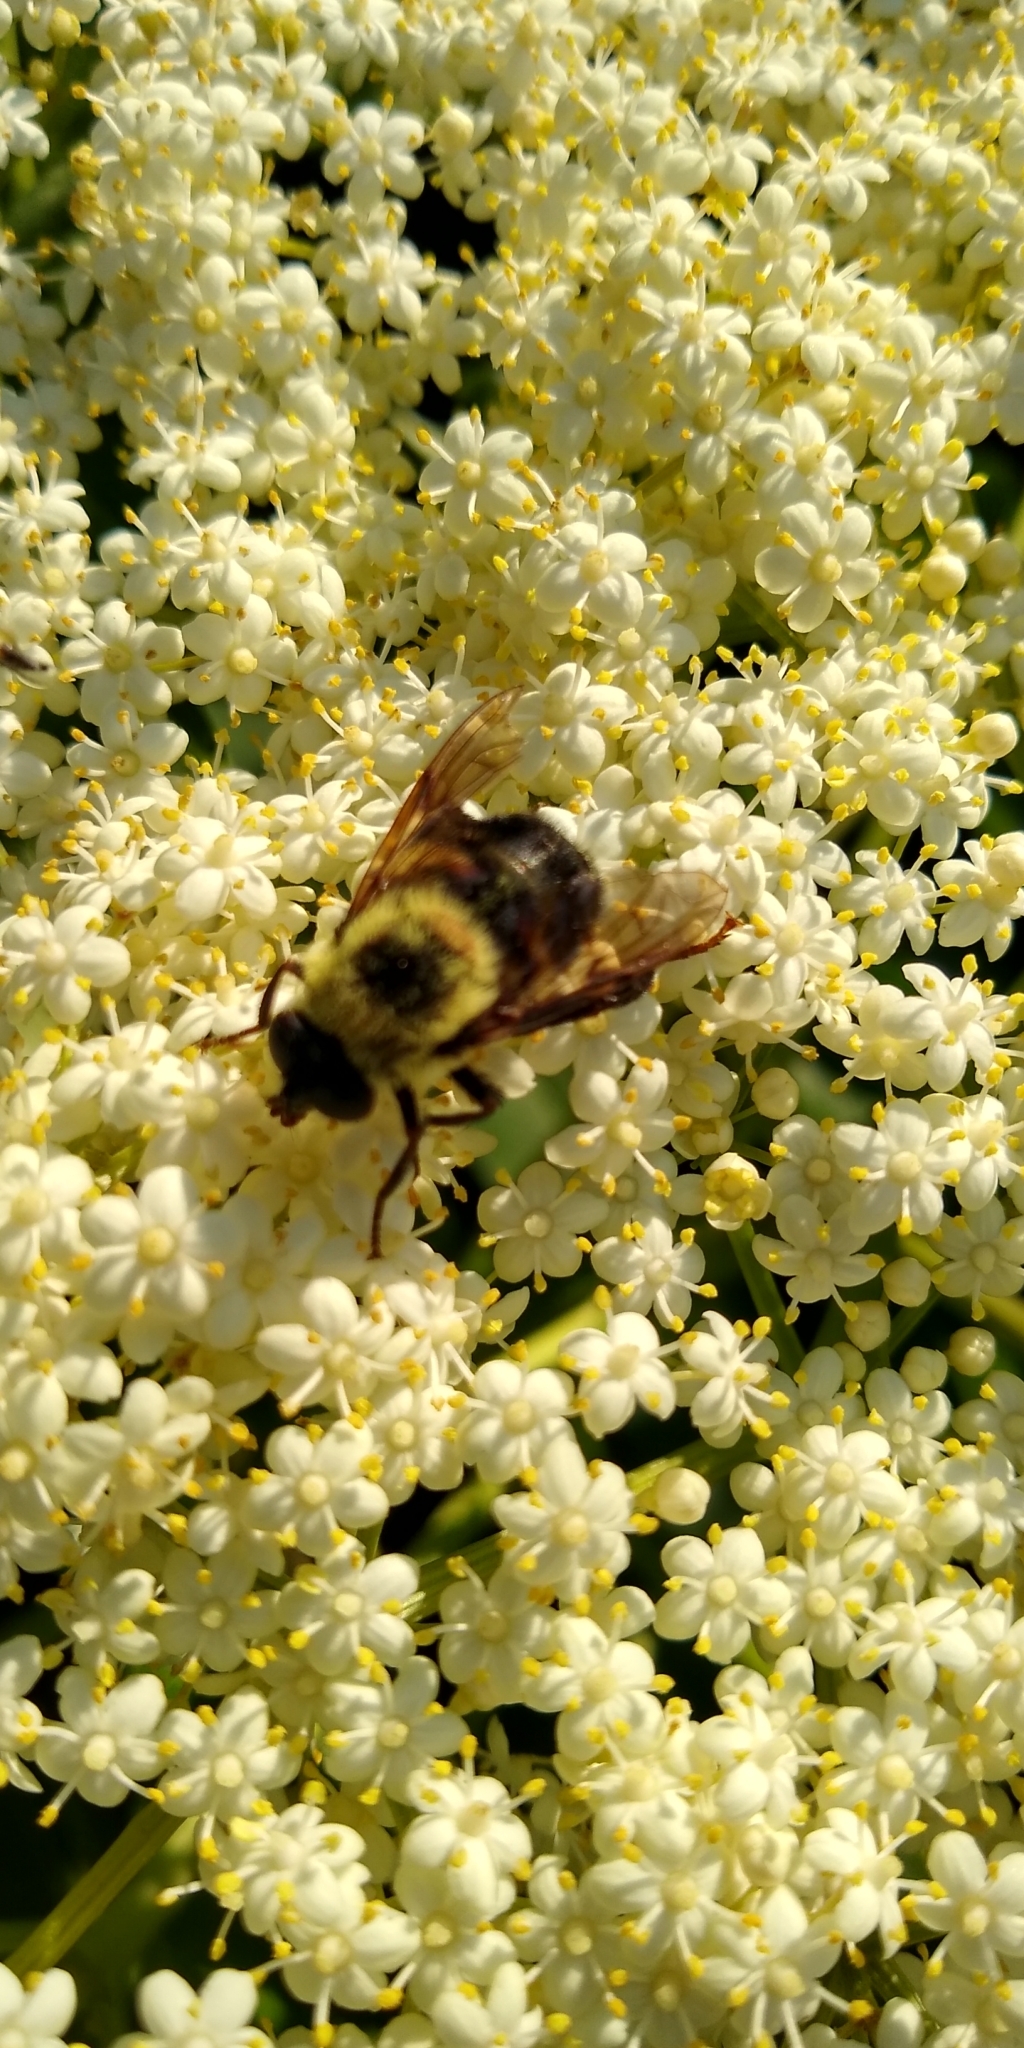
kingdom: Animalia
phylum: Arthropoda
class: Insecta
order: Diptera
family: Syrphidae
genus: Imatisma
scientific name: Imatisma posticata
